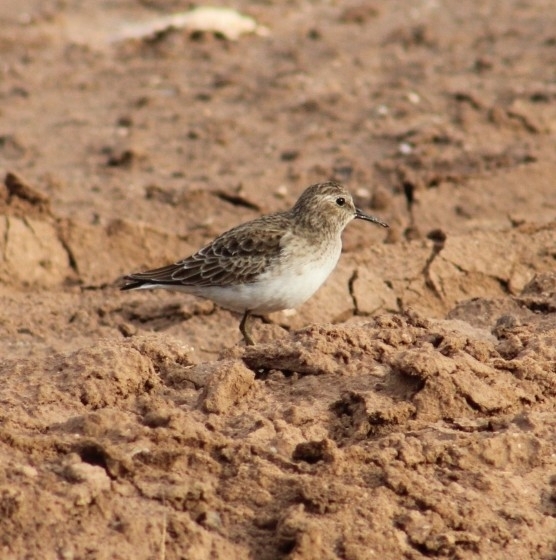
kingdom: Animalia
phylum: Chordata
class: Aves
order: Charadriiformes
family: Scolopacidae
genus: Calidris
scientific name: Calidris minutilla
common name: Least sandpiper
